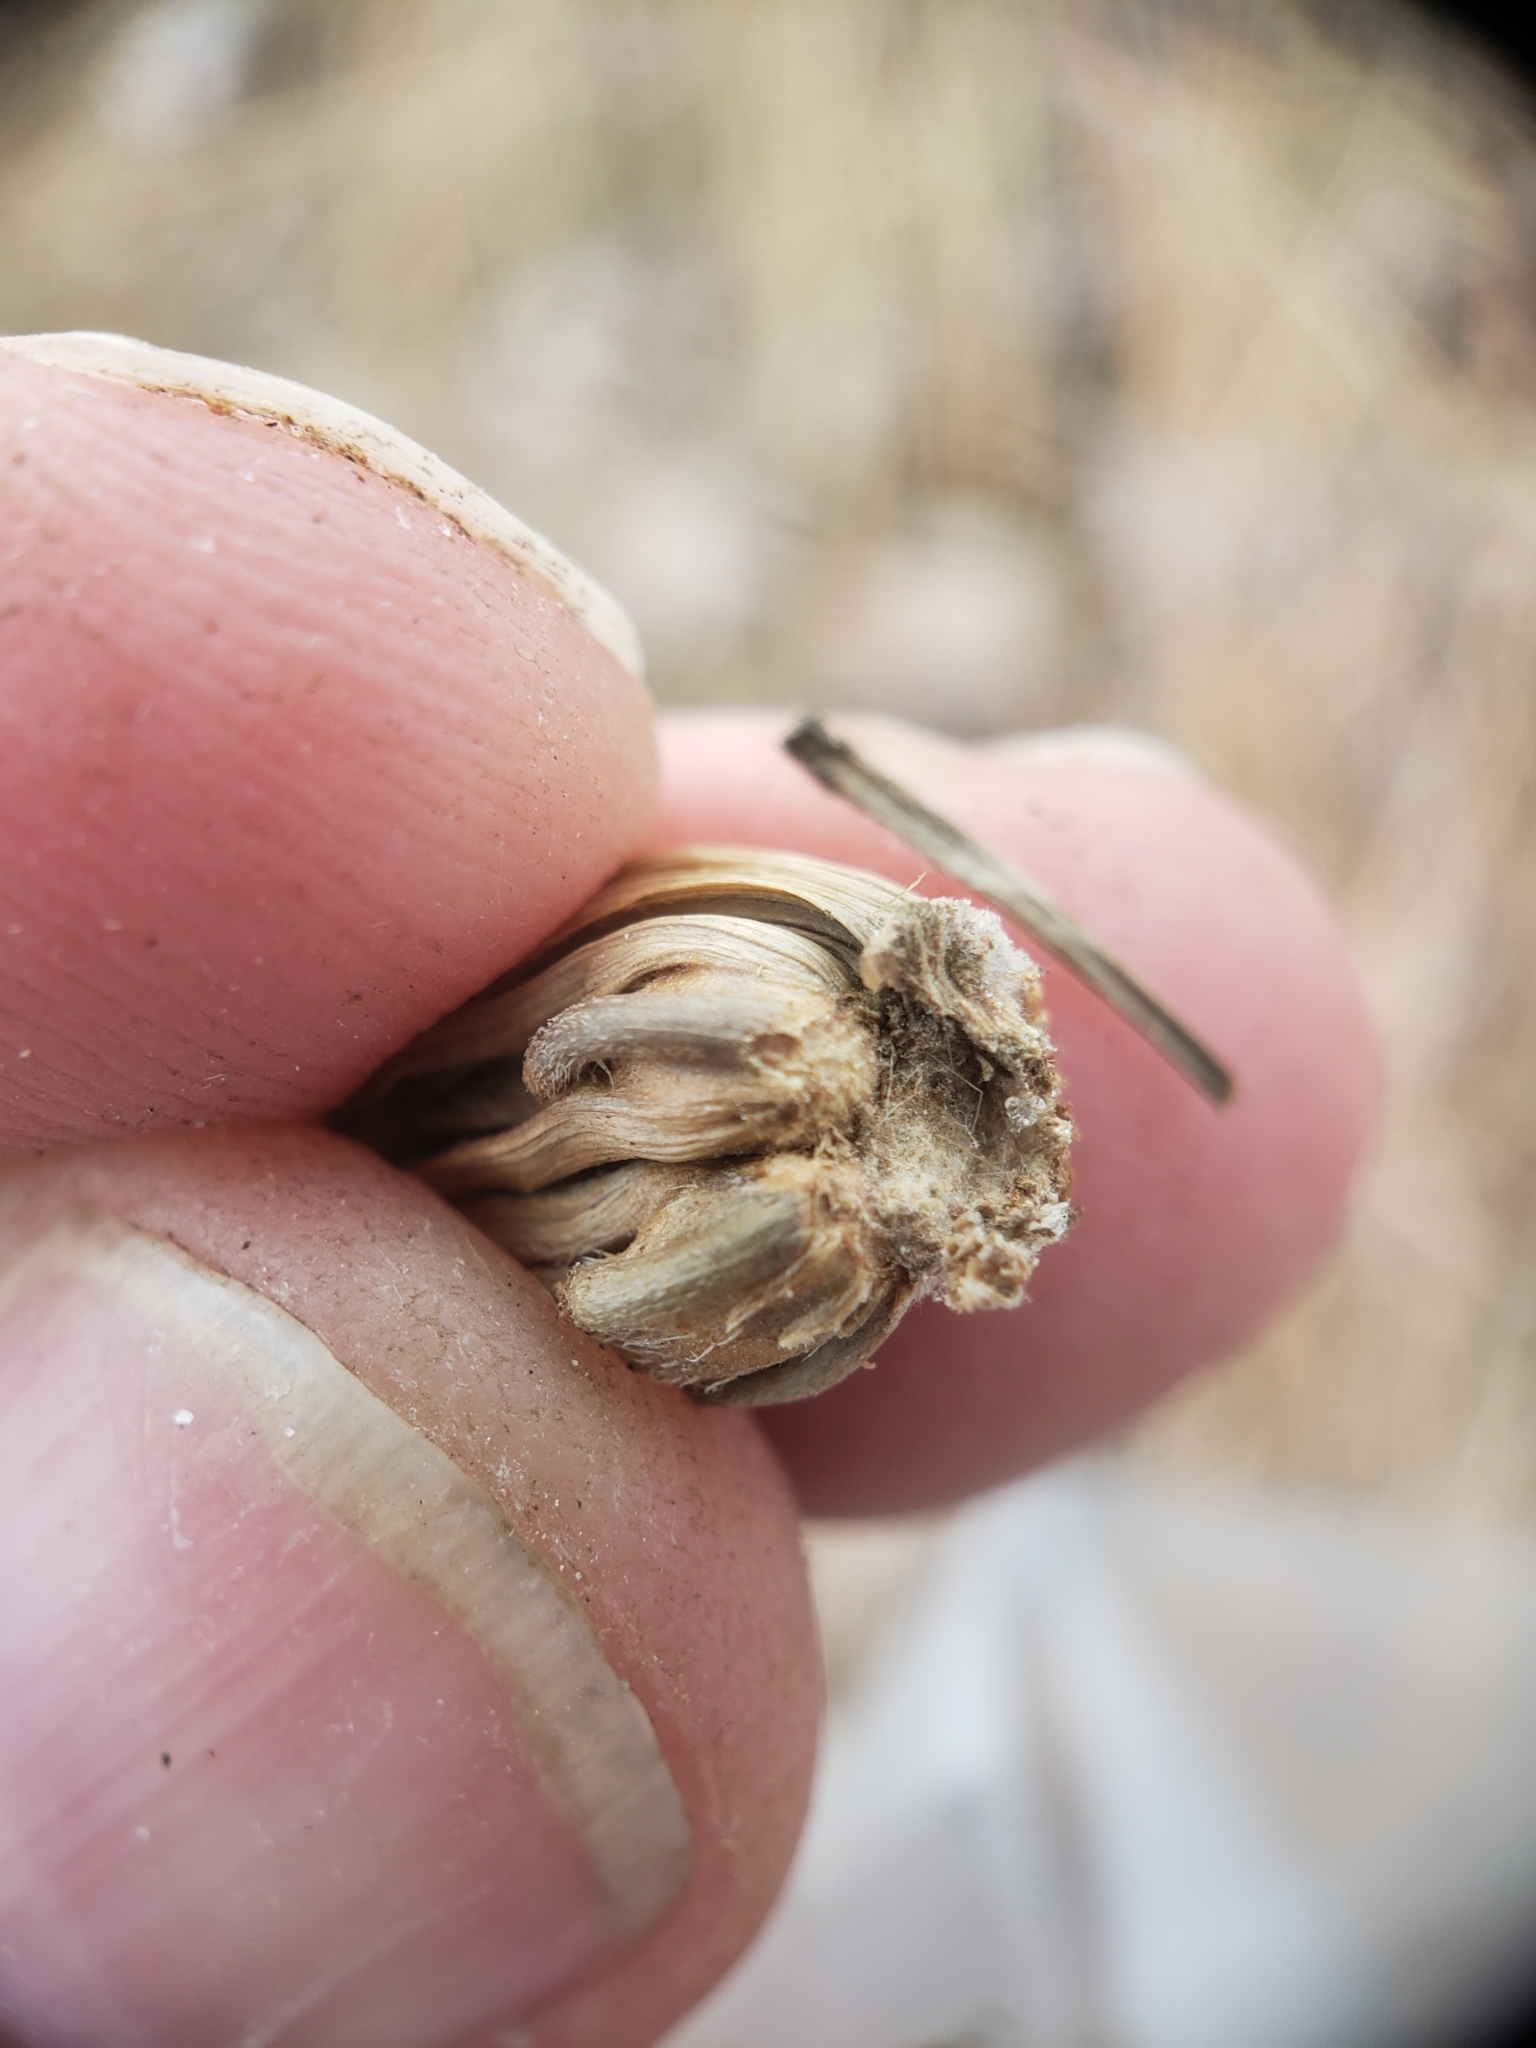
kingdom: Animalia
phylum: Arthropoda
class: Insecta
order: Hymenoptera
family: Cynipidae
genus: Antistrophus
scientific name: Antistrophus
